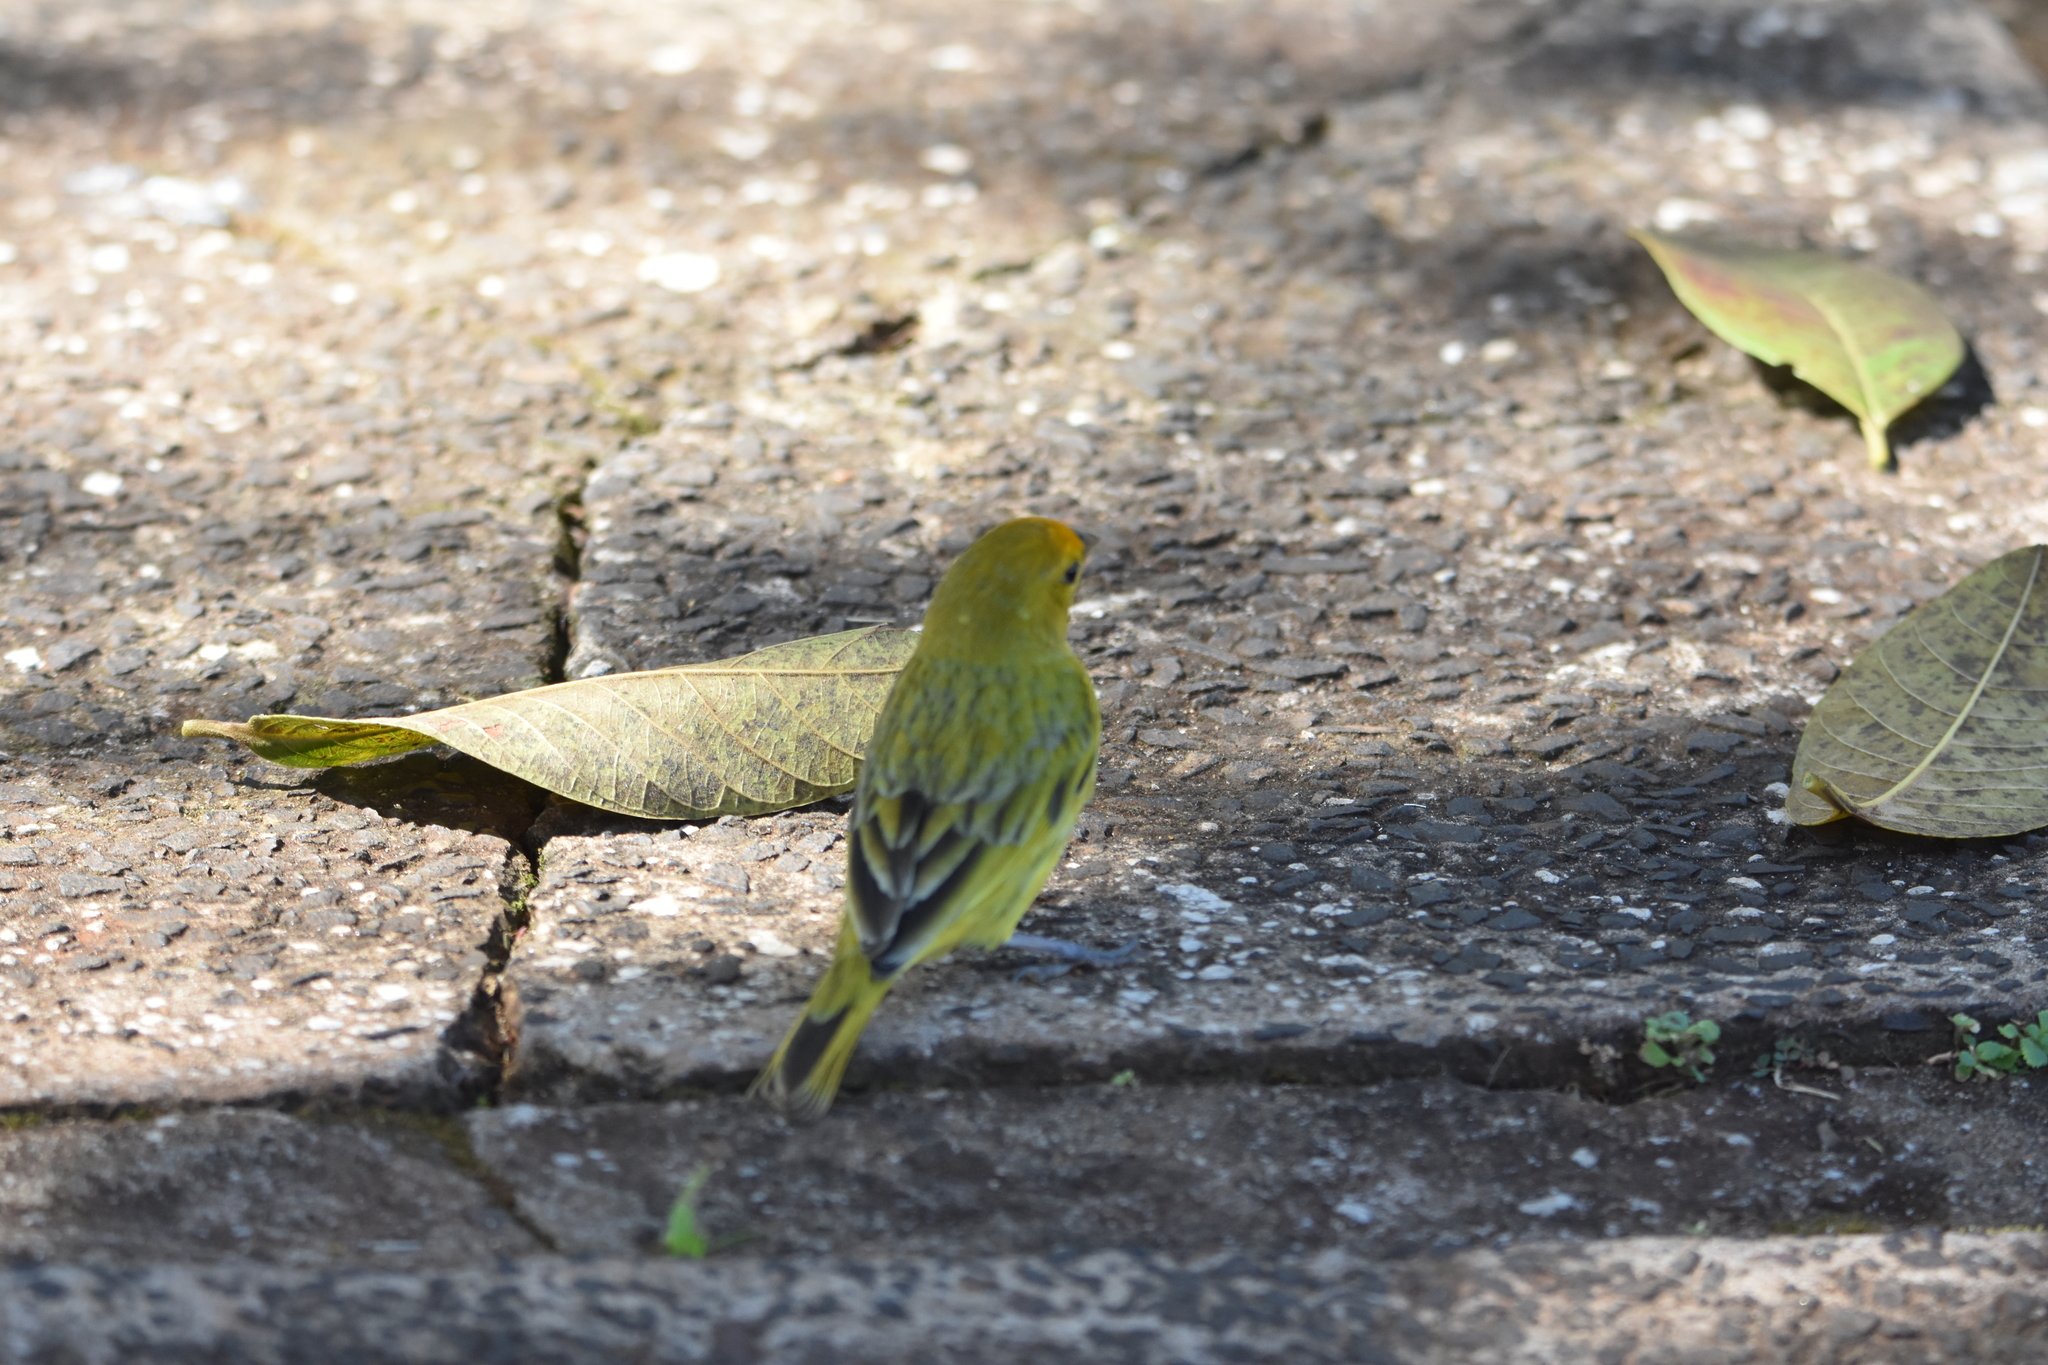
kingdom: Animalia
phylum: Chordata
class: Aves
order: Passeriformes
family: Thraupidae
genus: Sicalis
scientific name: Sicalis flaveola
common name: Saffron finch
